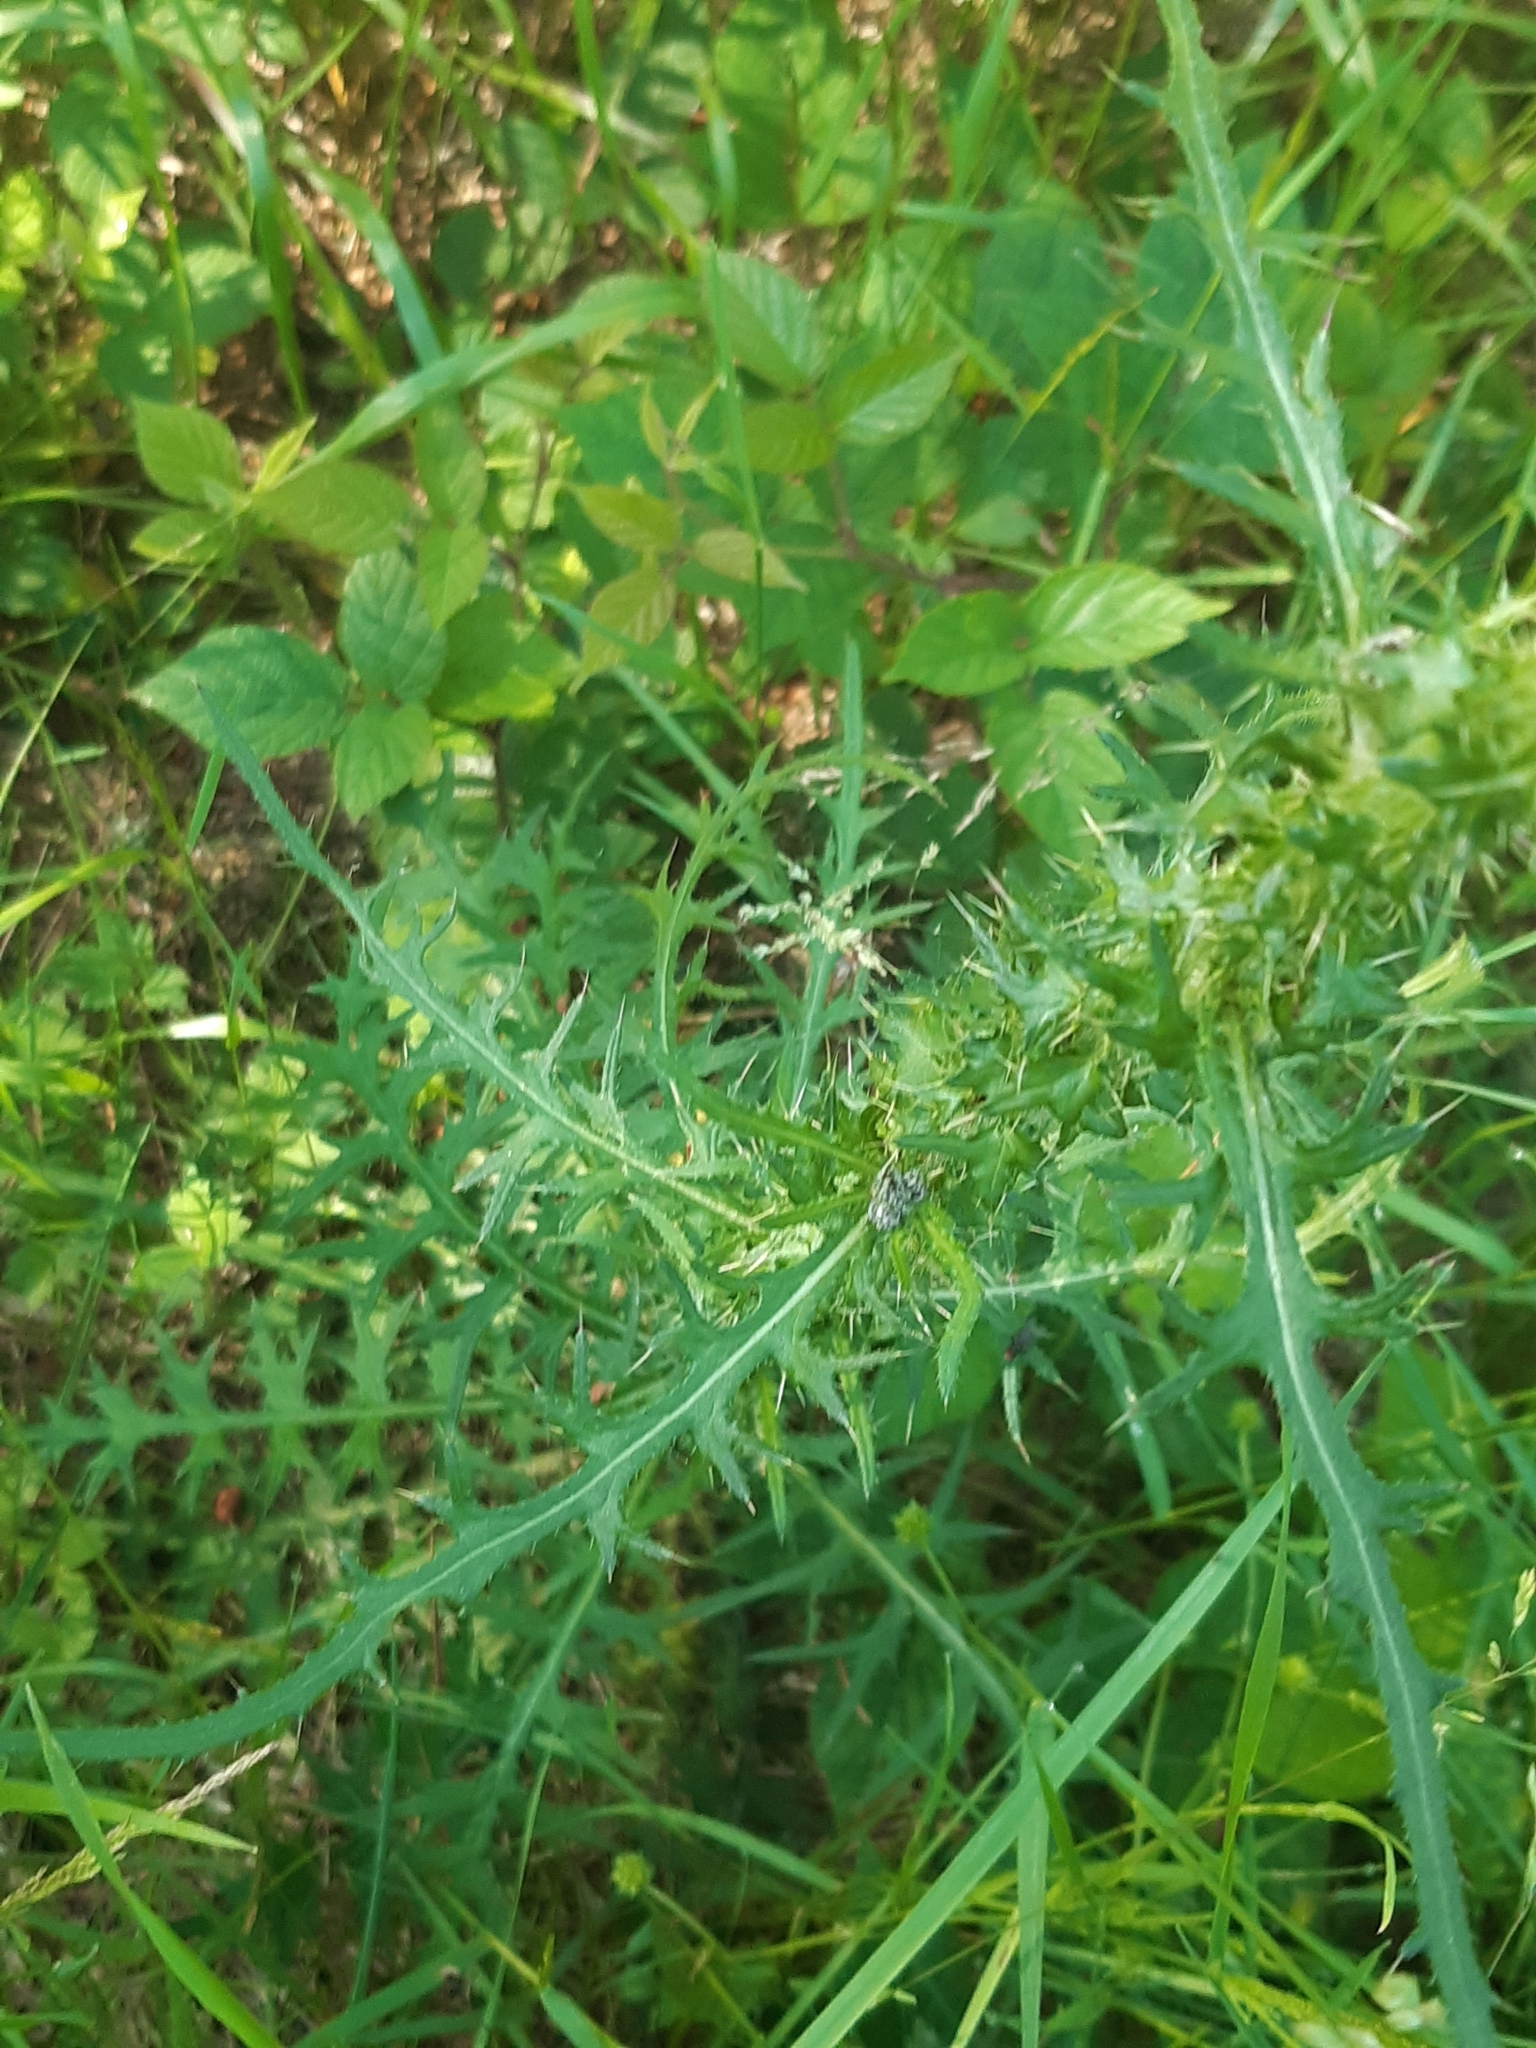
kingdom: Plantae
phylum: Tracheophyta
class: Magnoliopsida
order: Asterales
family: Asteraceae
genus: Cirsium
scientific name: Cirsium palustre
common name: Marsh thistle
